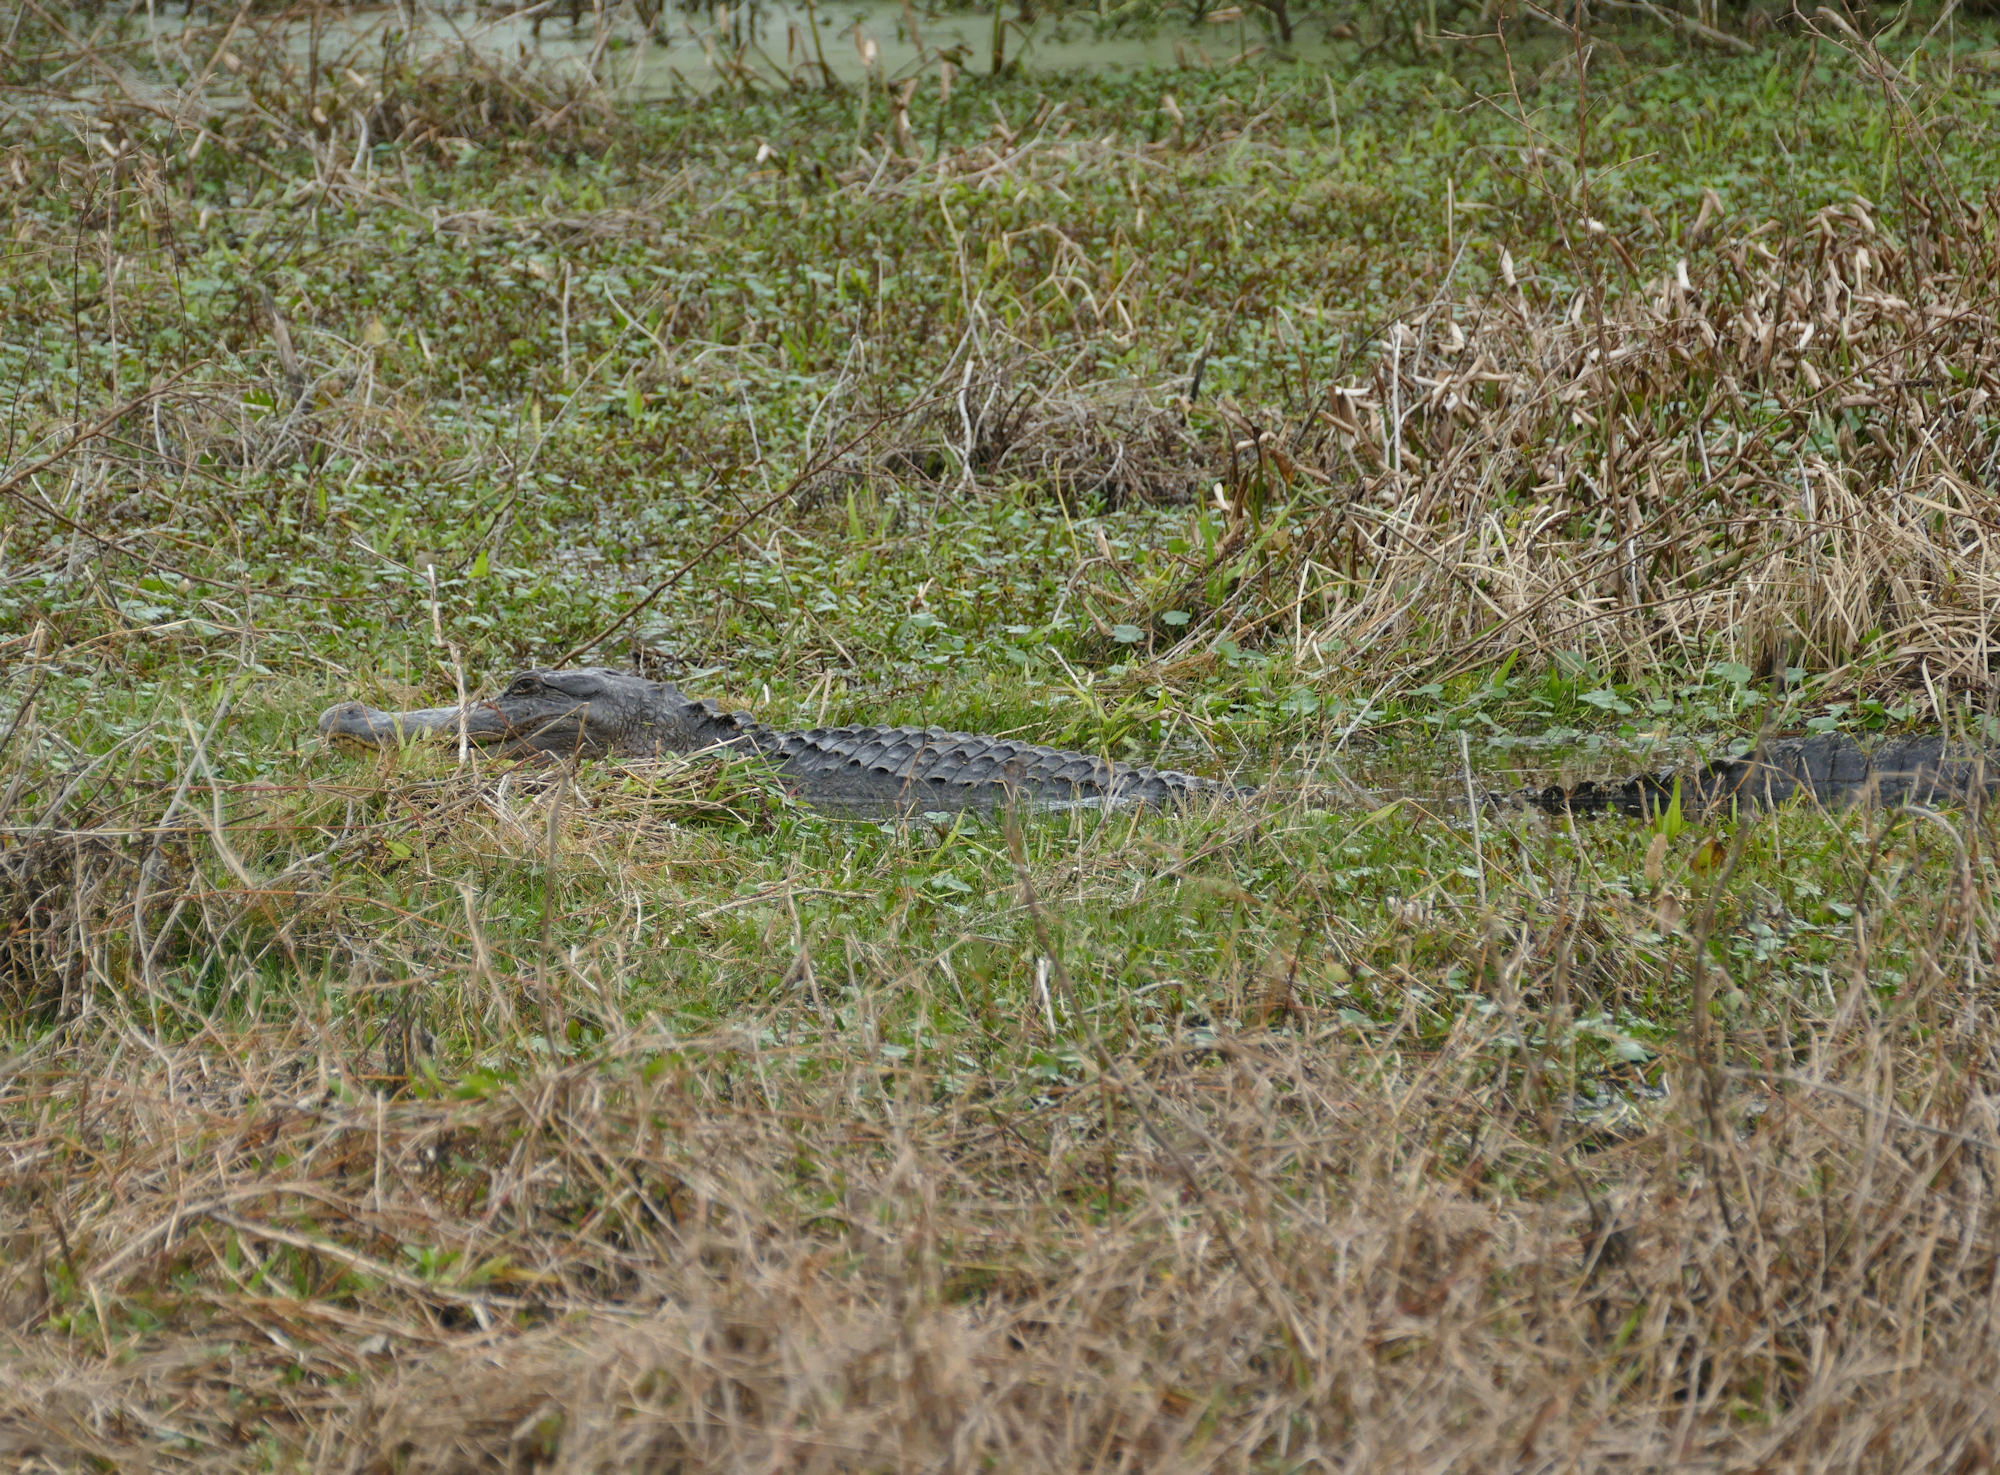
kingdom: Animalia
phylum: Chordata
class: Crocodylia
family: Alligatoridae
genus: Alligator
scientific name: Alligator mississippiensis
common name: American alligator
